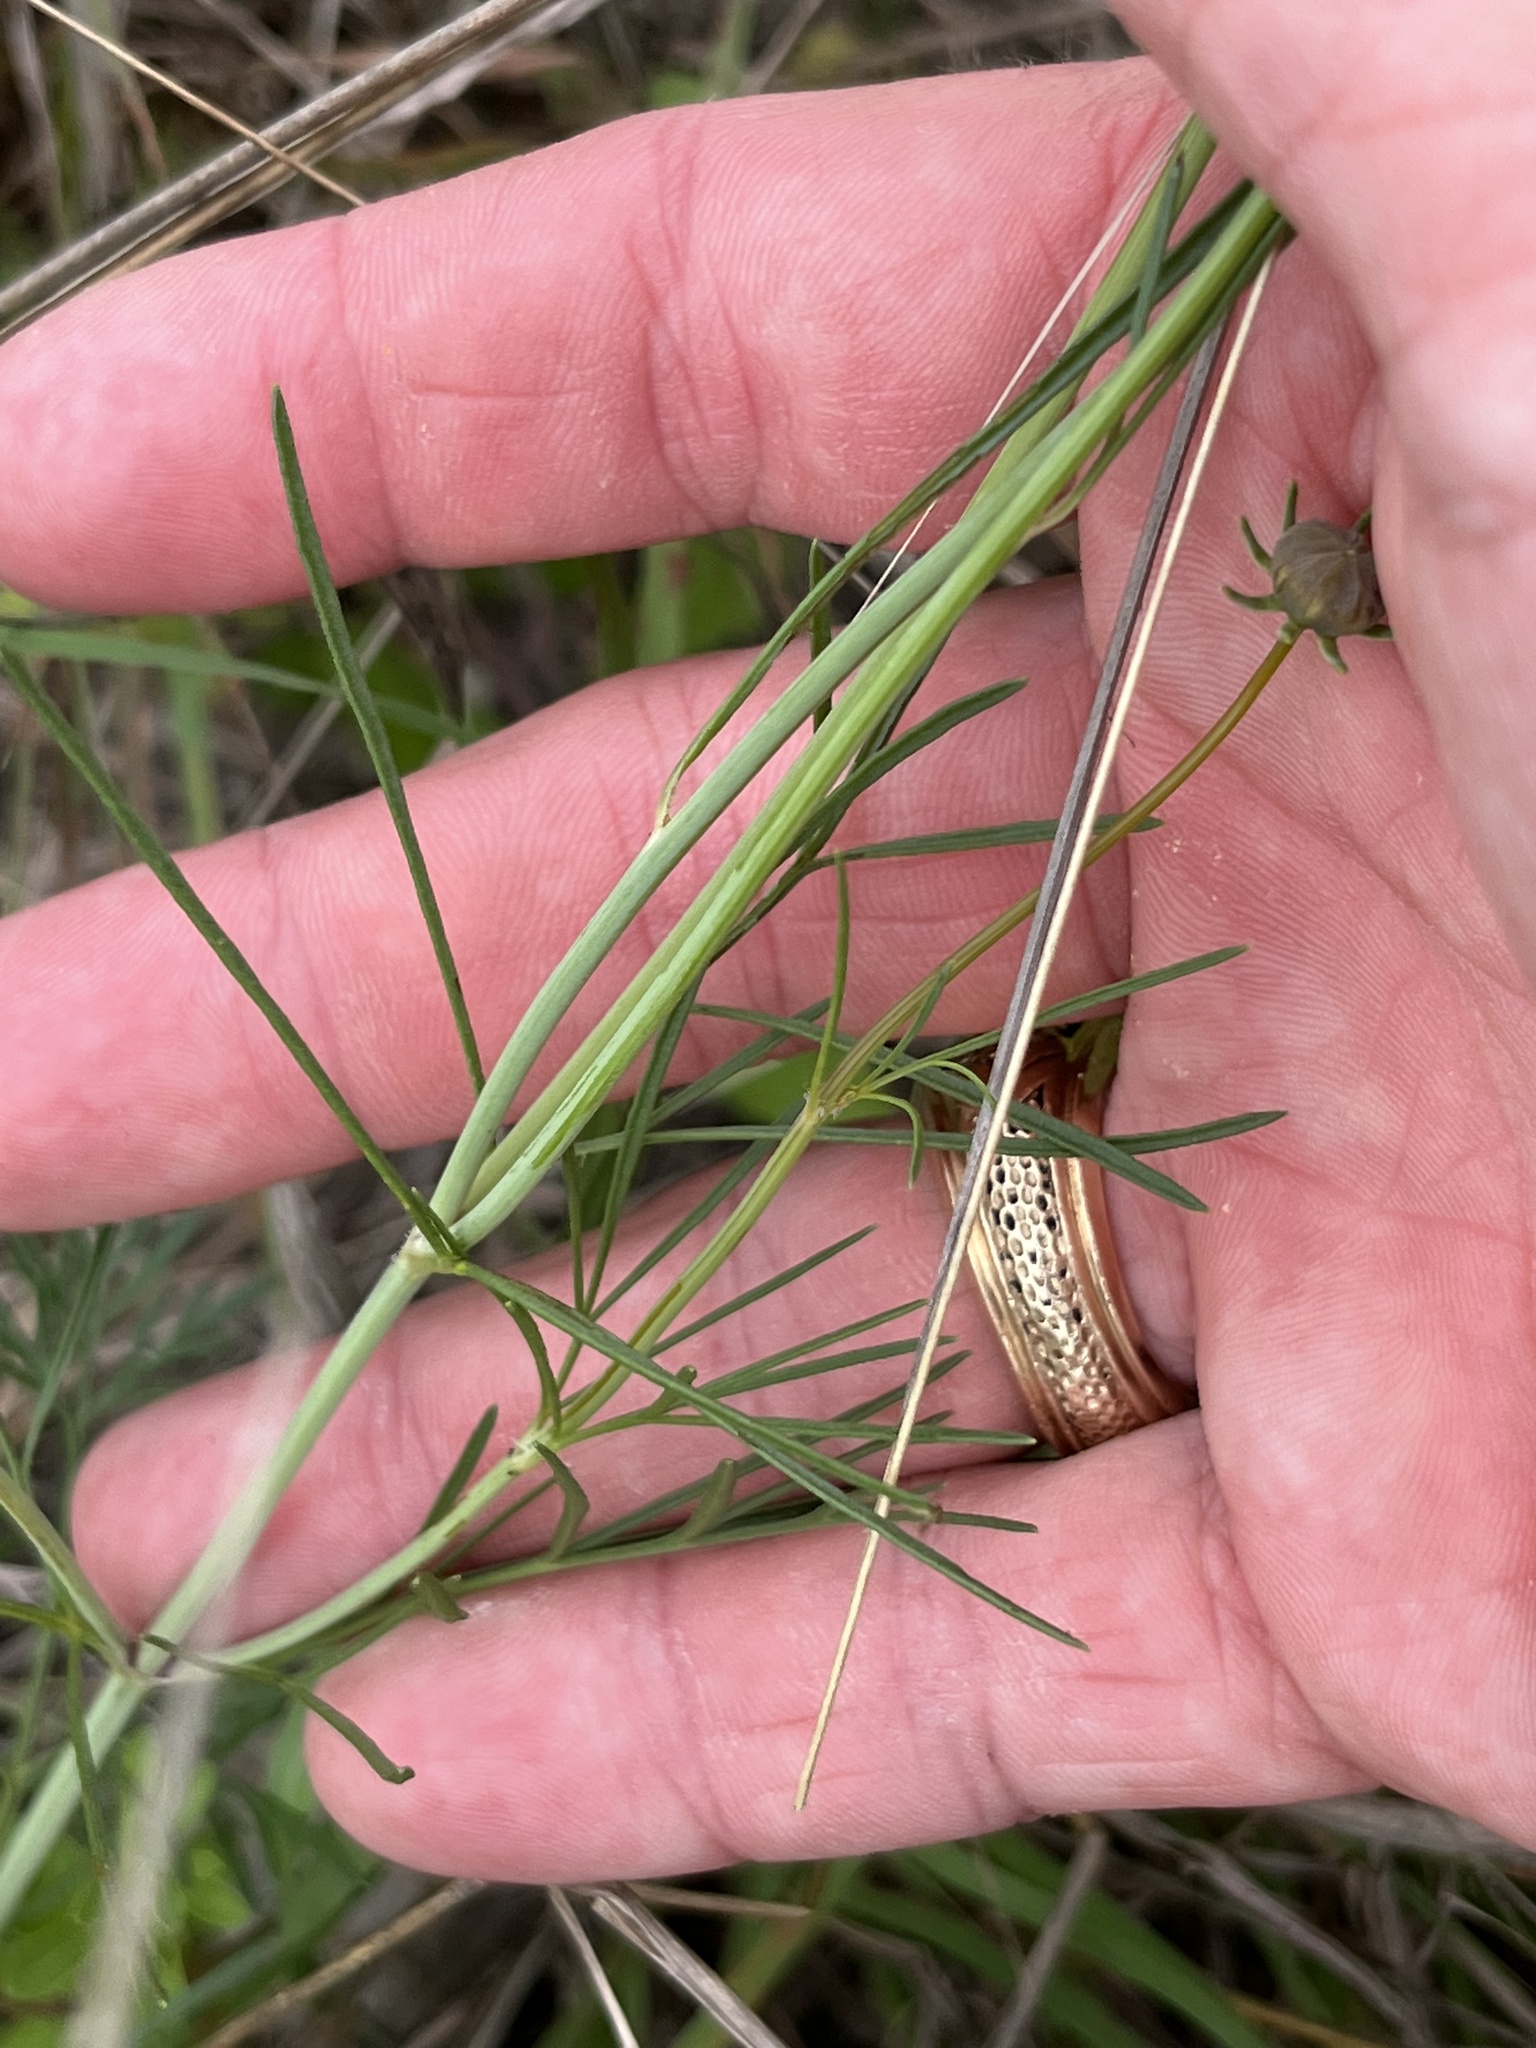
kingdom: Plantae
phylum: Tracheophyta
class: Magnoliopsida
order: Asterales
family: Asteraceae
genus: Thelesperma
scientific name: Thelesperma filifolium
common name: Stiff greenthread
